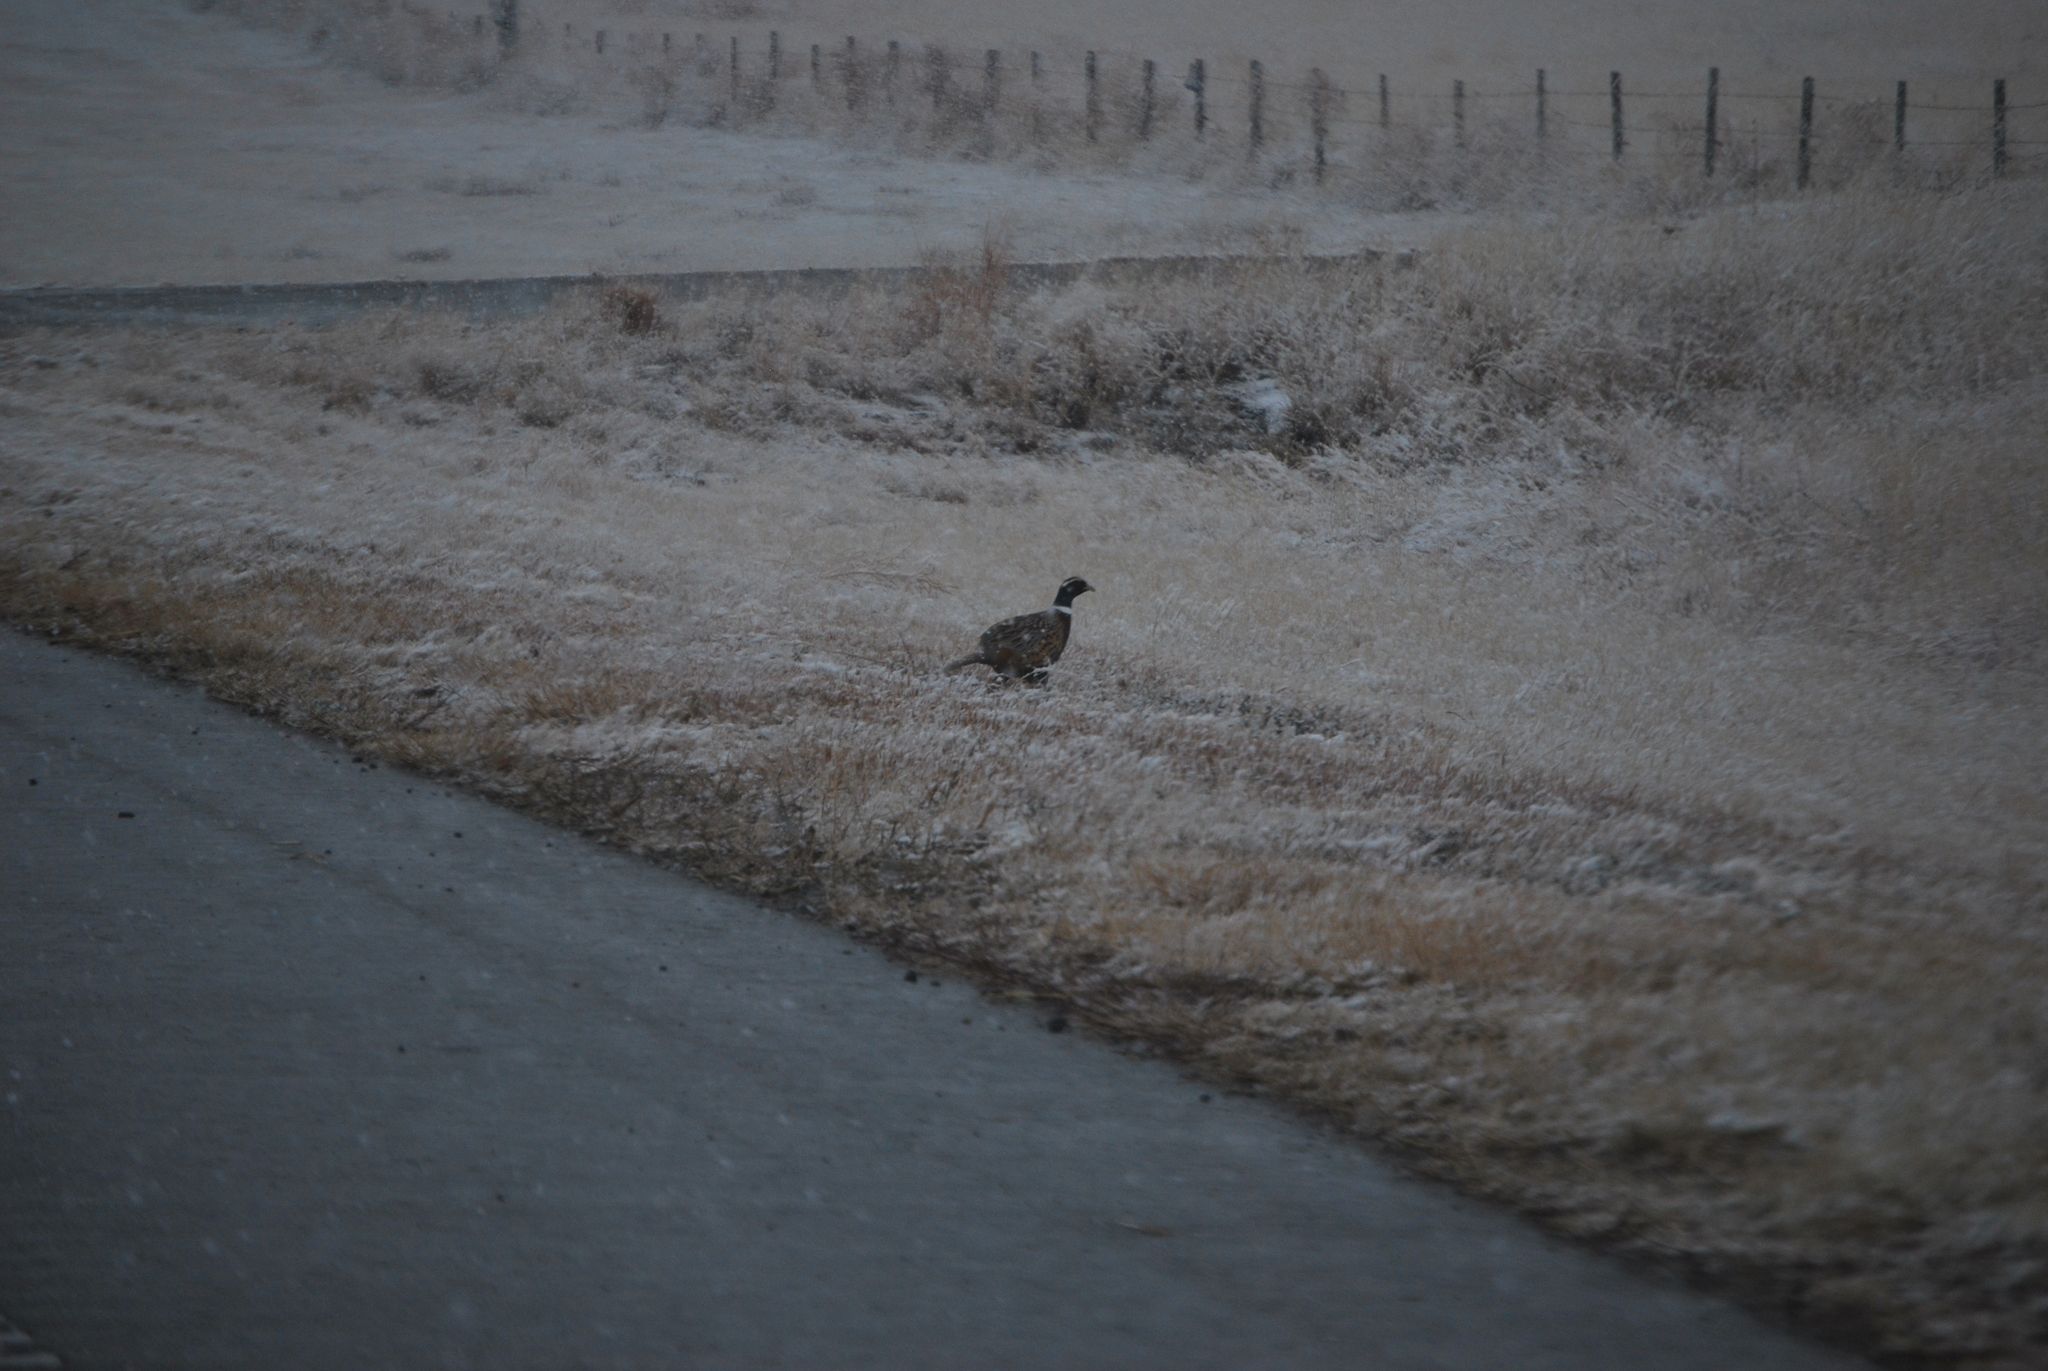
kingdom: Animalia
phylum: Chordata
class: Aves
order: Galliformes
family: Phasianidae
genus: Phasianus
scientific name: Phasianus colchicus
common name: Common pheasant
